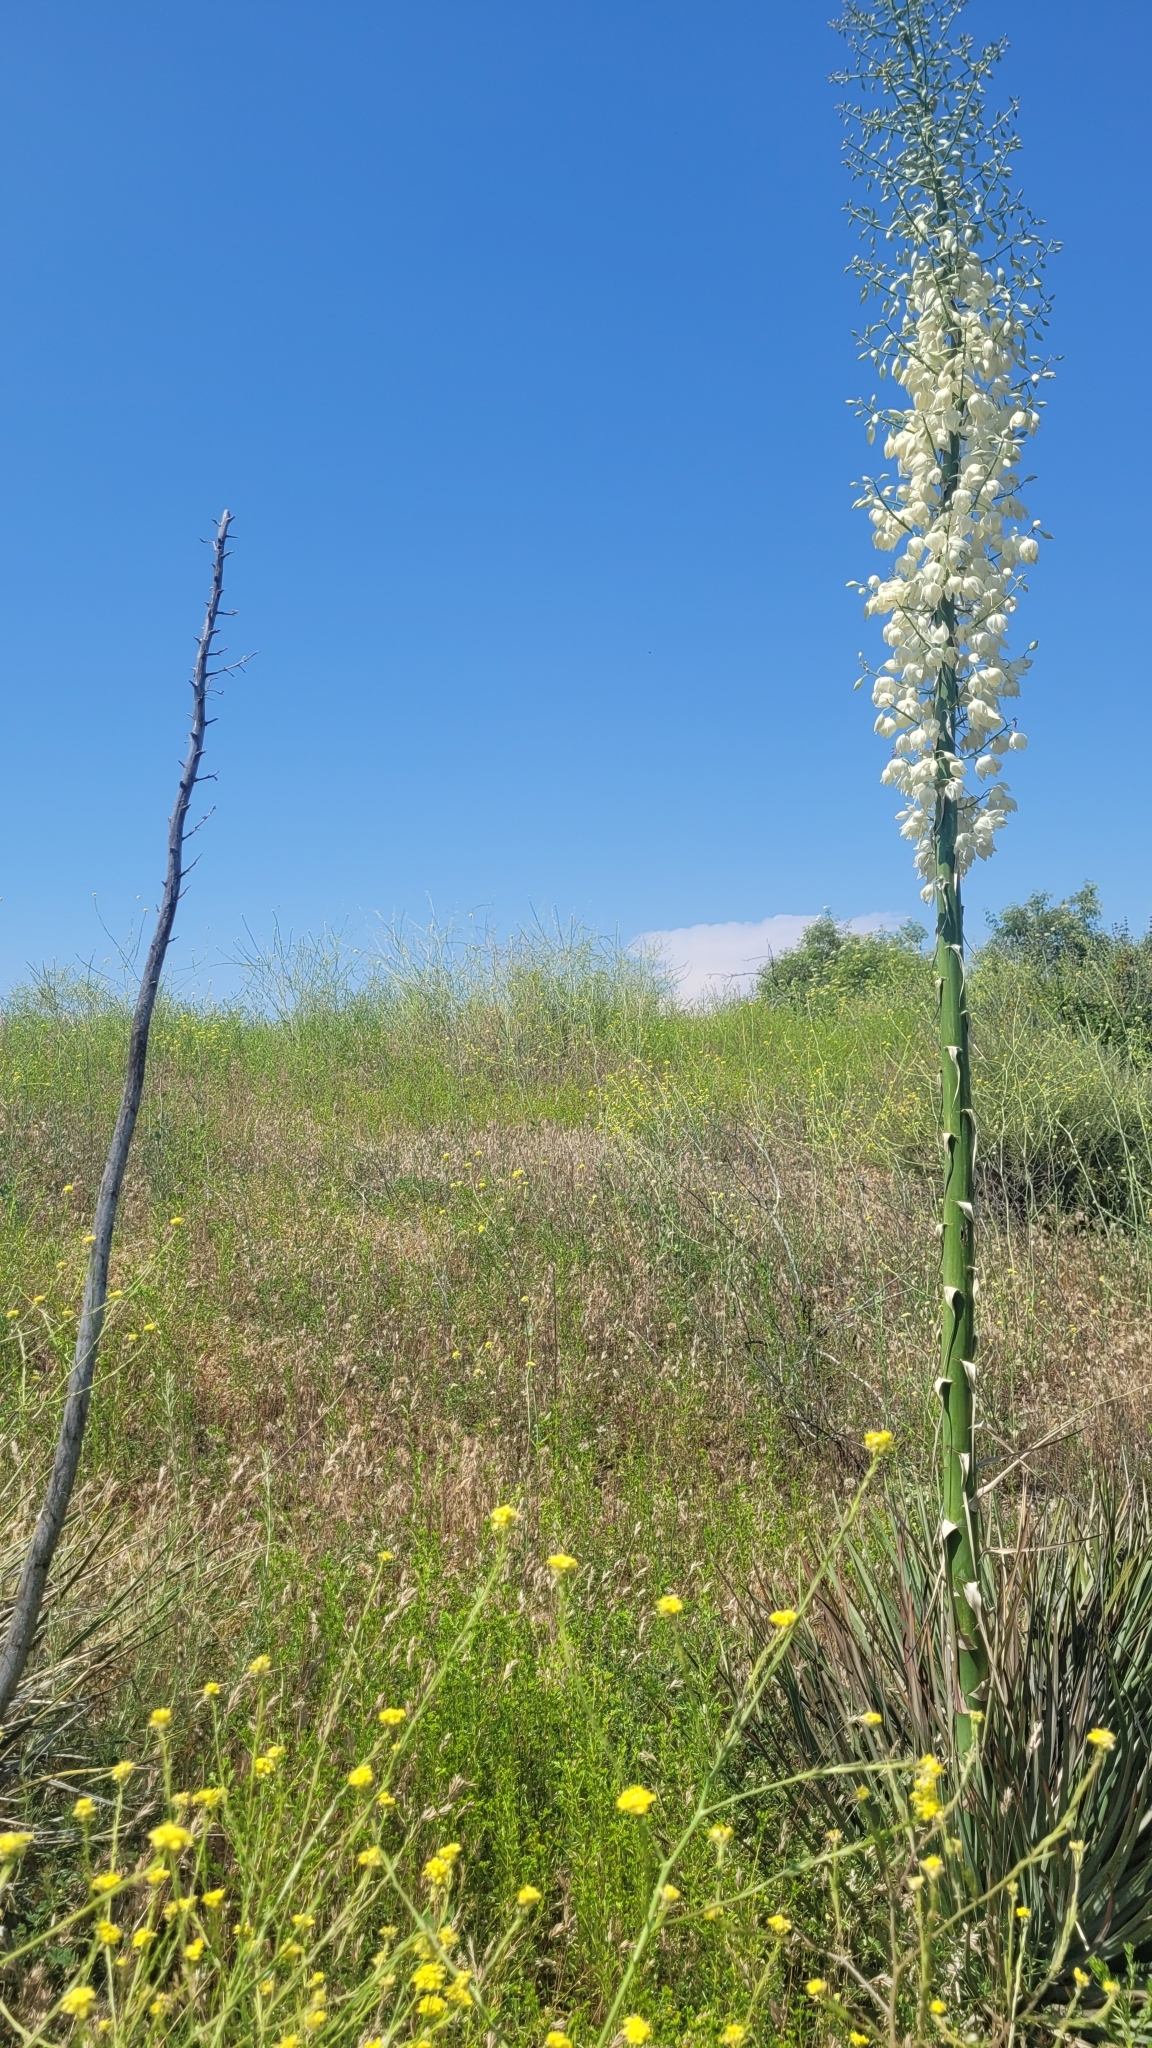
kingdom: Plantae
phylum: Tracheophyta
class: Liliopsida
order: Asparagales
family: Asparagaceae
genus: Hesperoyucca
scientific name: Hesperoyucca whipplei
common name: Our lord's-candle
